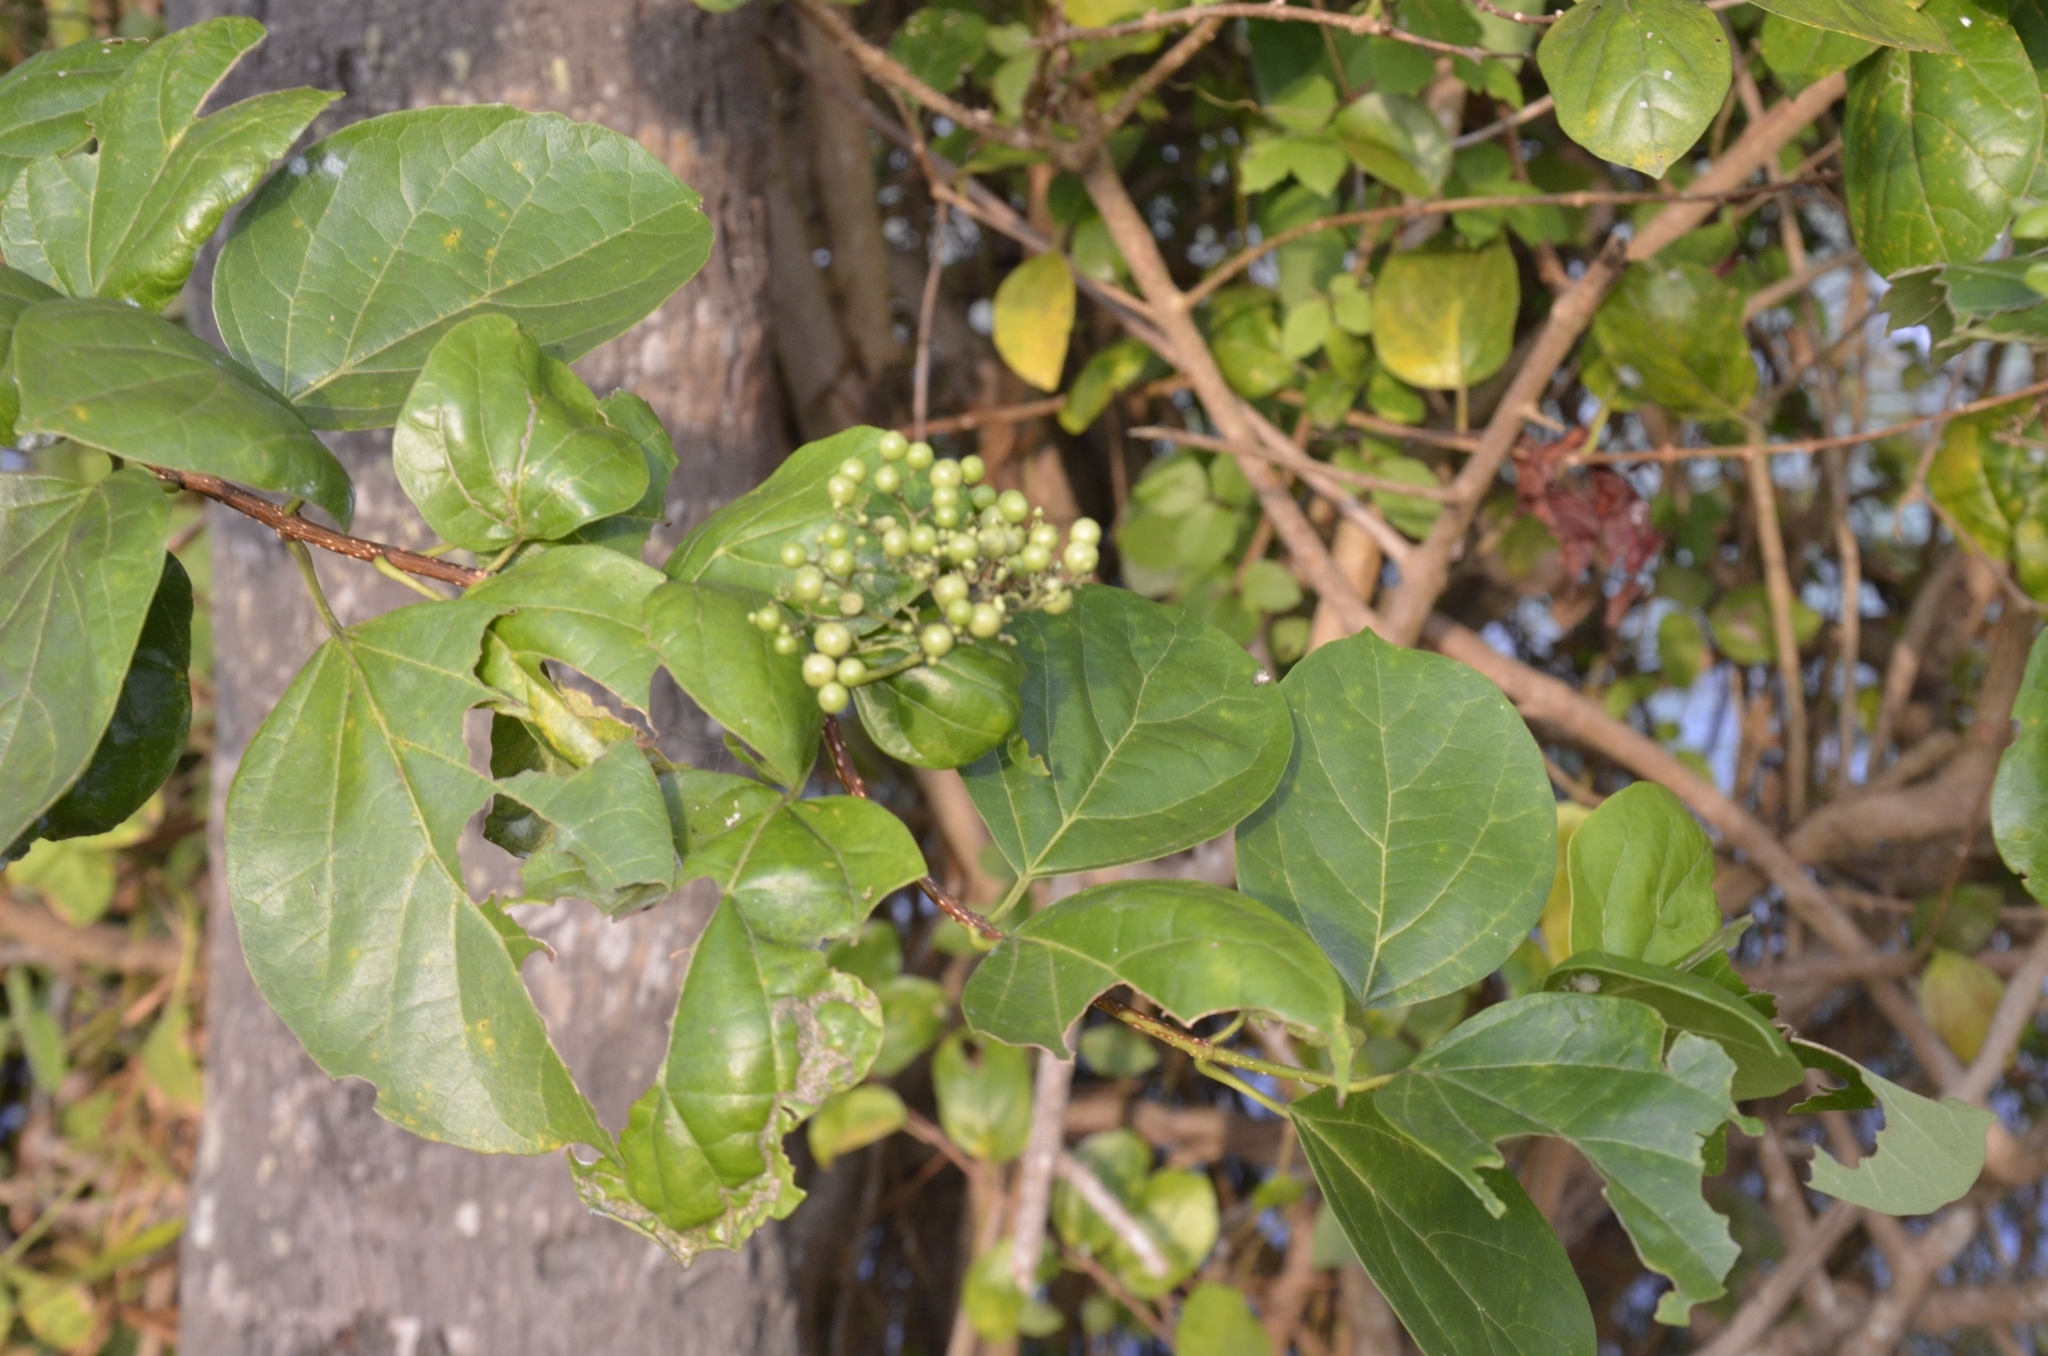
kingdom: Plantae
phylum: Tracheophyta
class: Magnoliopsida
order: Lamiales
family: Lamiaceae
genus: Premna
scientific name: Premna serratifolia
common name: Bastard guelder
